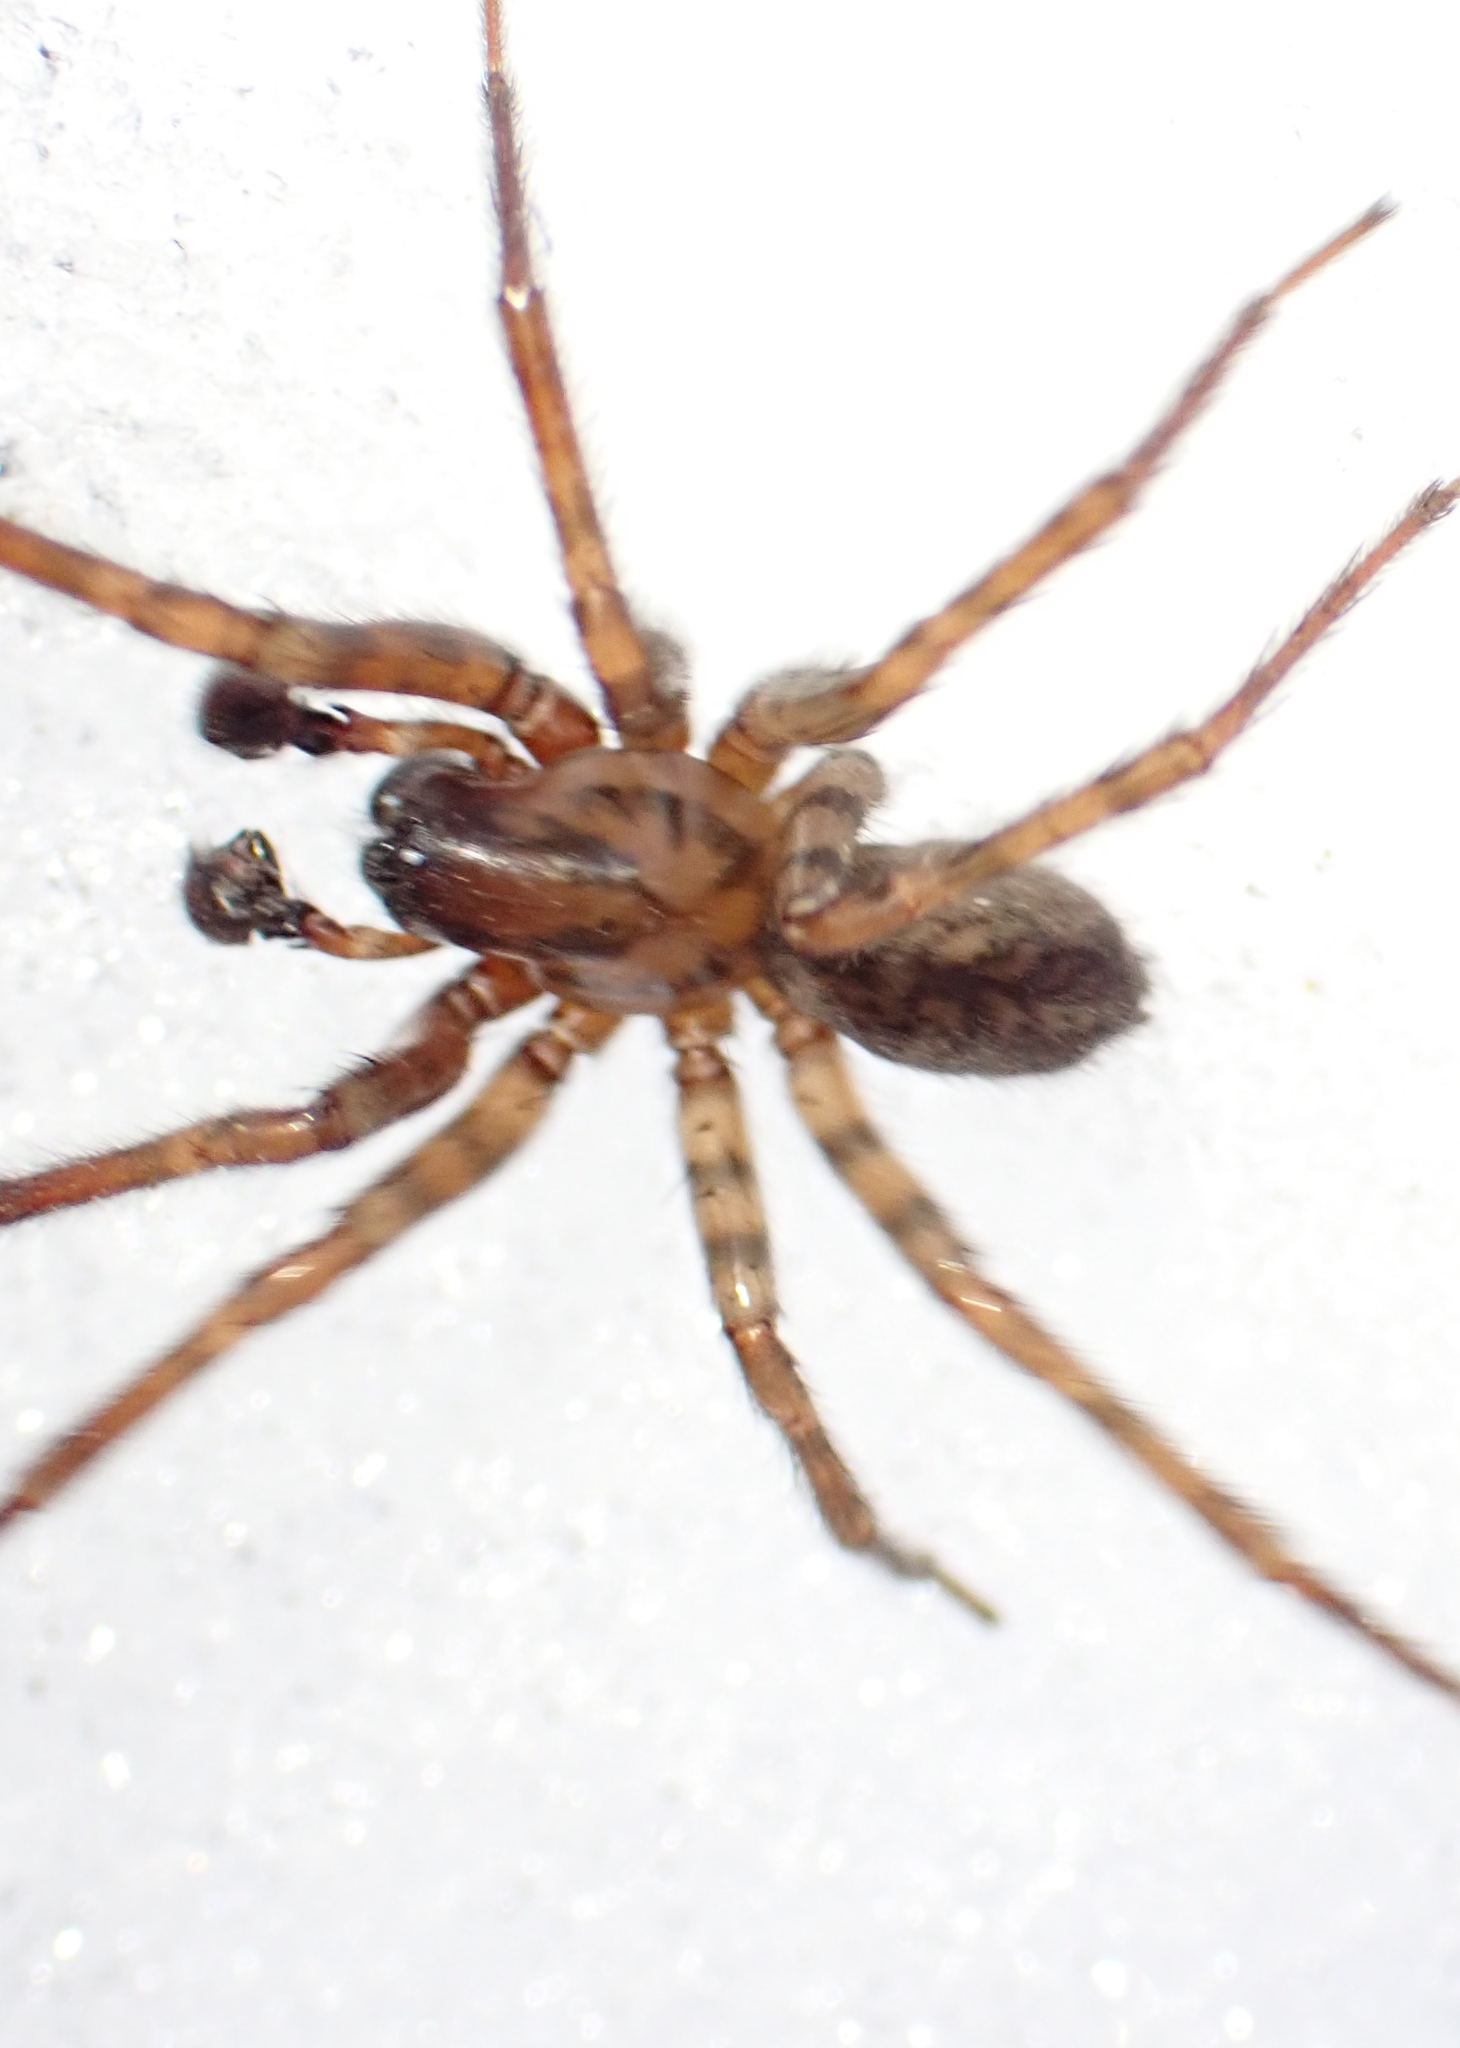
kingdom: Animalia
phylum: Arthropoda
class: Arachnida
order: Araneae
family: Agelenidae
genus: Coras
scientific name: Coras
